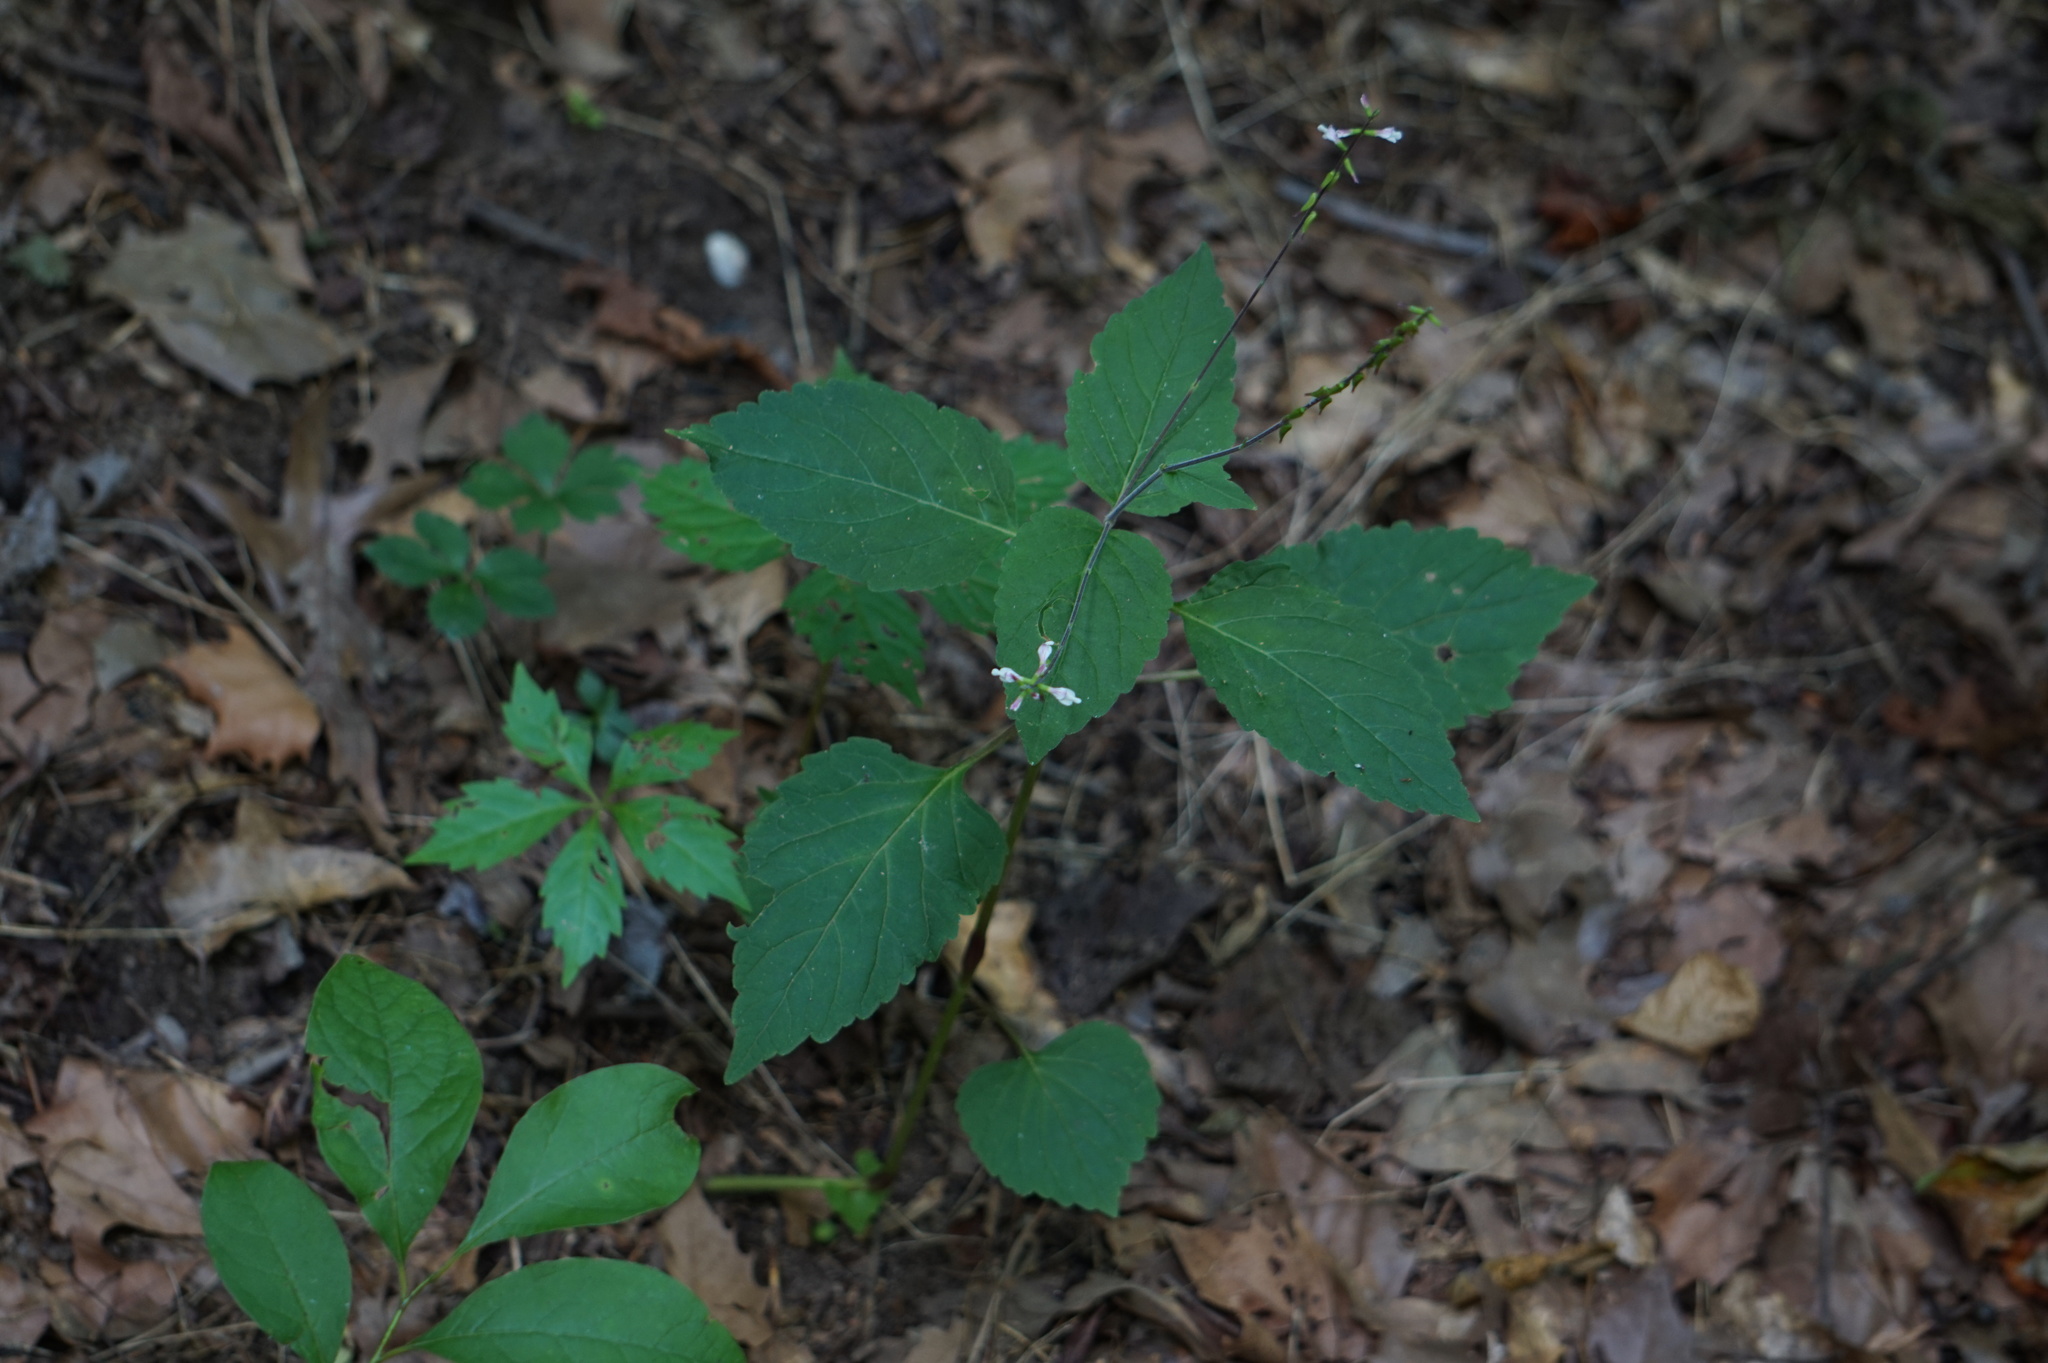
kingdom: Plantae
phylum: Tracheophyta
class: Magnoliopsida
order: Lamiales
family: Phrymaceae
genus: Phryma
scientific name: Phryma leptostachya
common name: American lopseed
